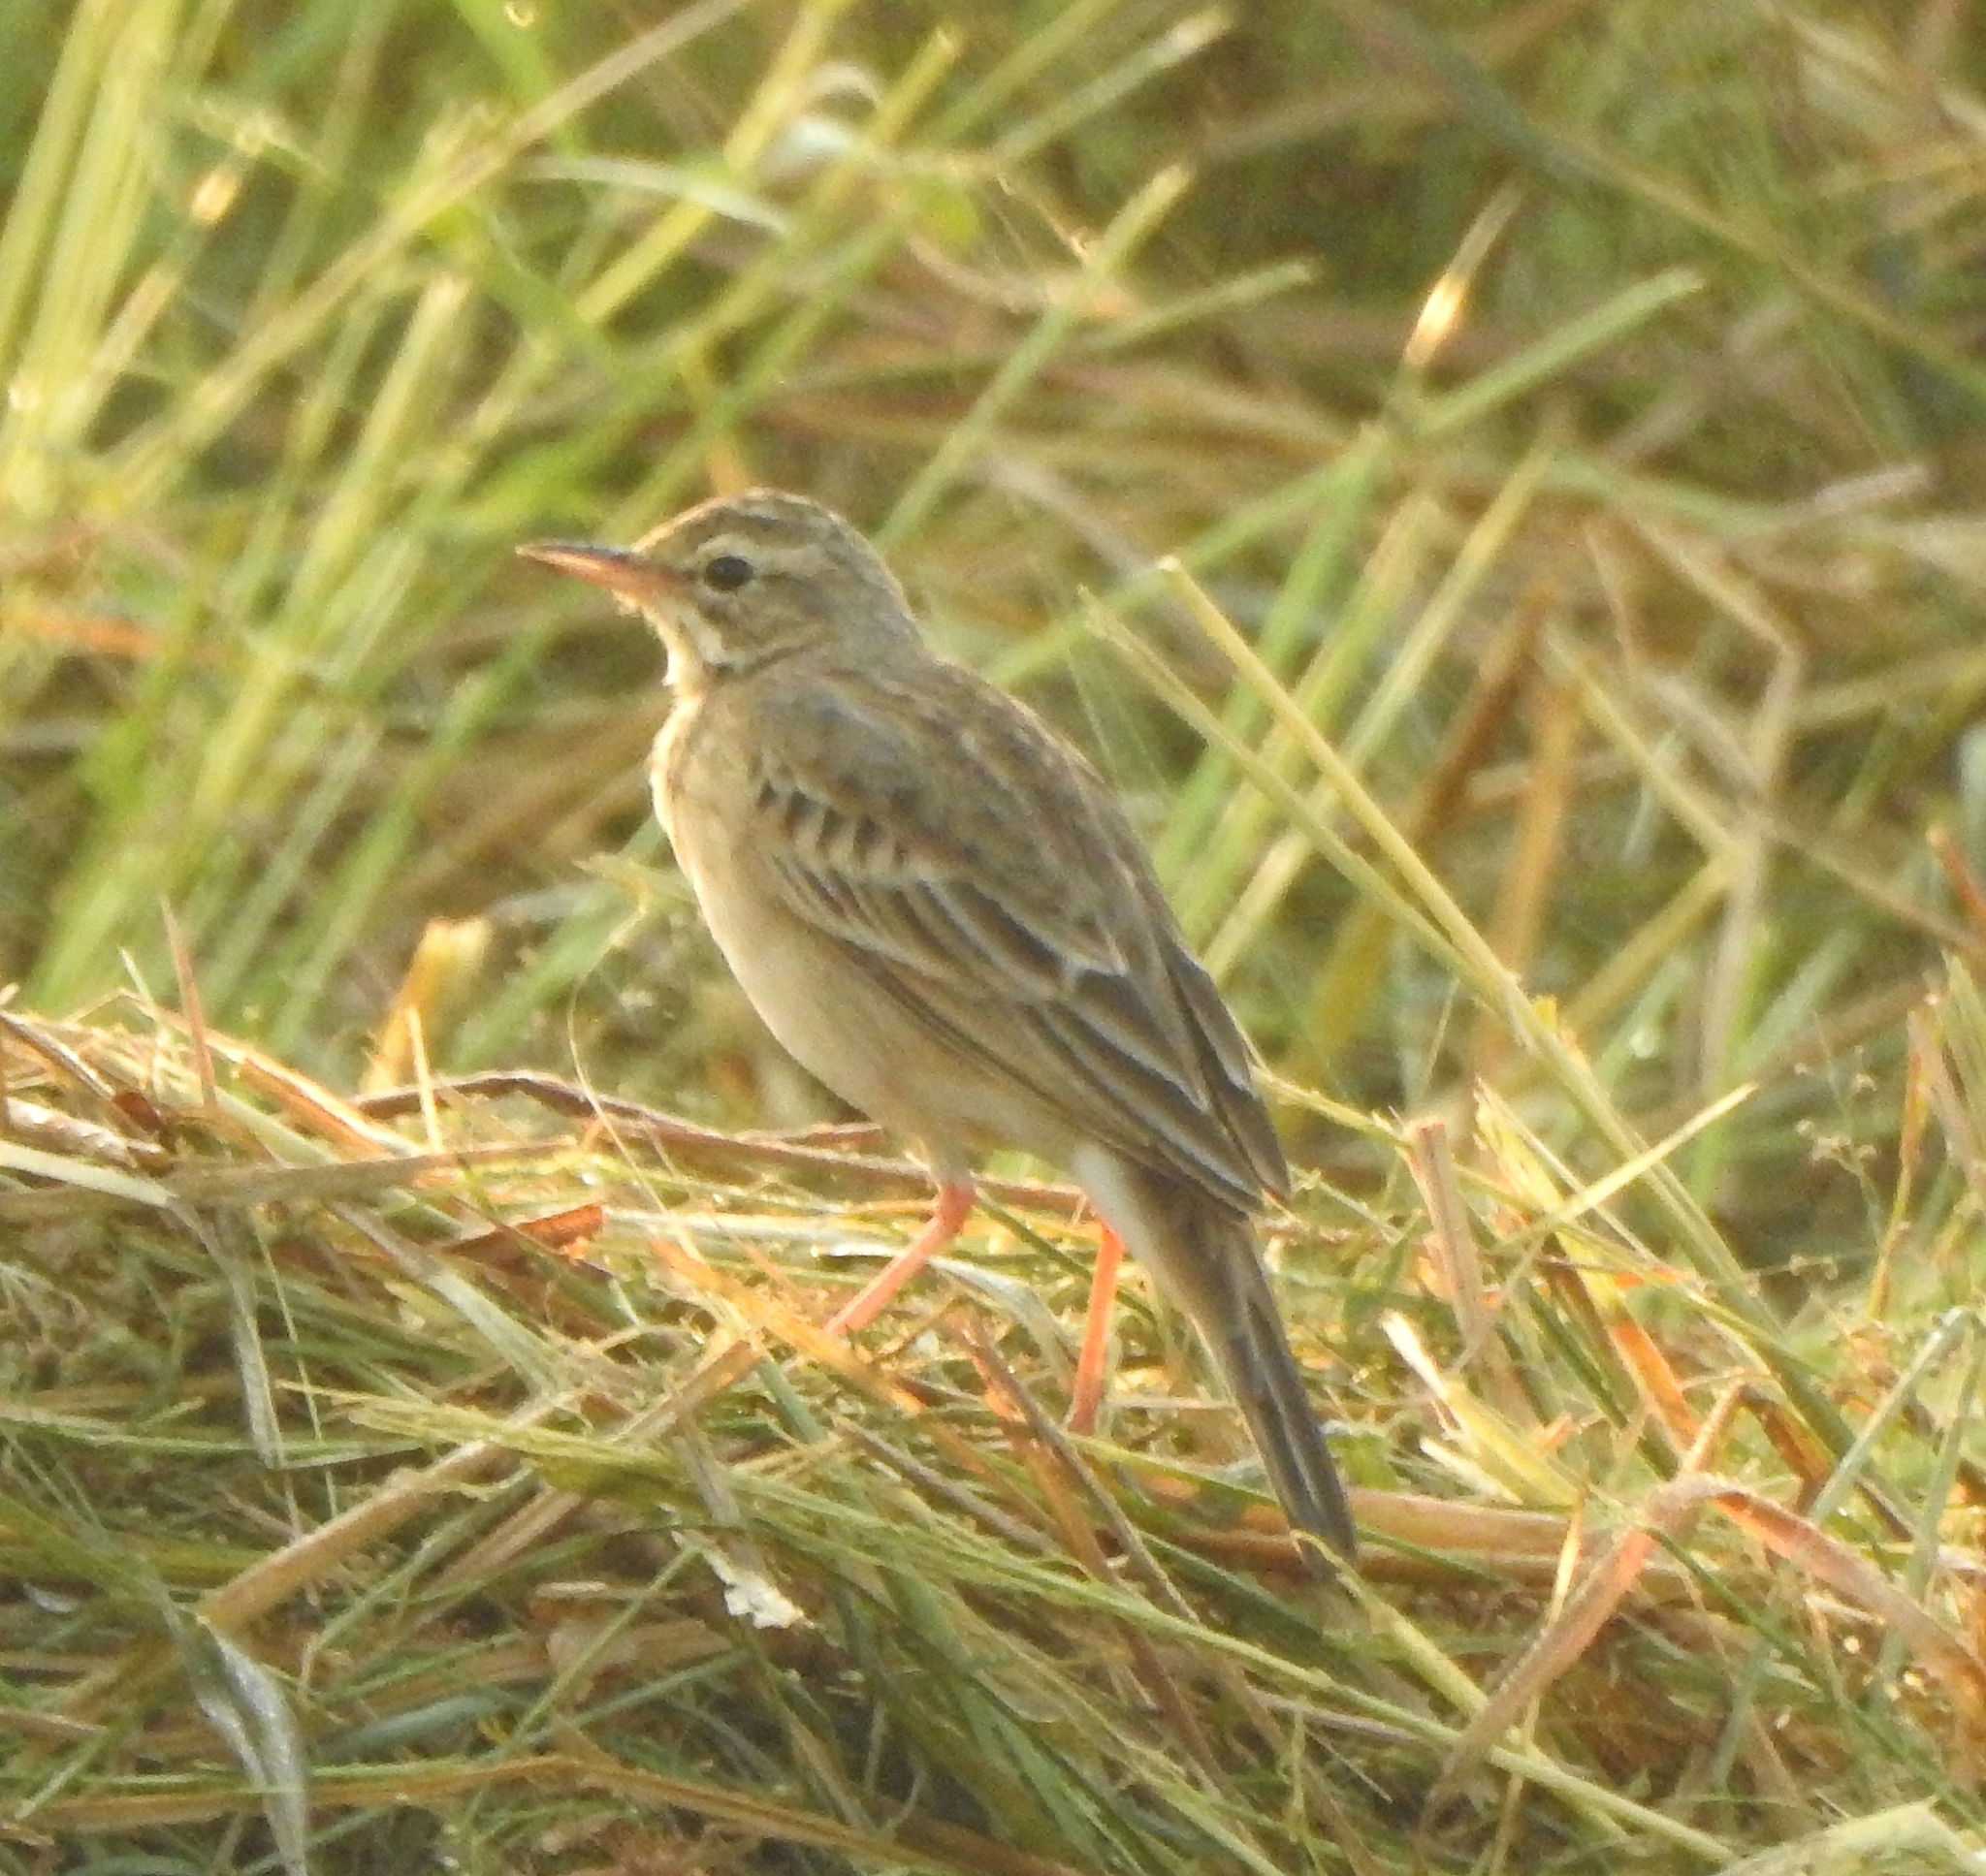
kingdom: Animalia
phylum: Chordata
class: Aves
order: Passeriformes
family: Motacillidae
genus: Anthus
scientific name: Anthus rufulus
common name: Paddyfield pipit
